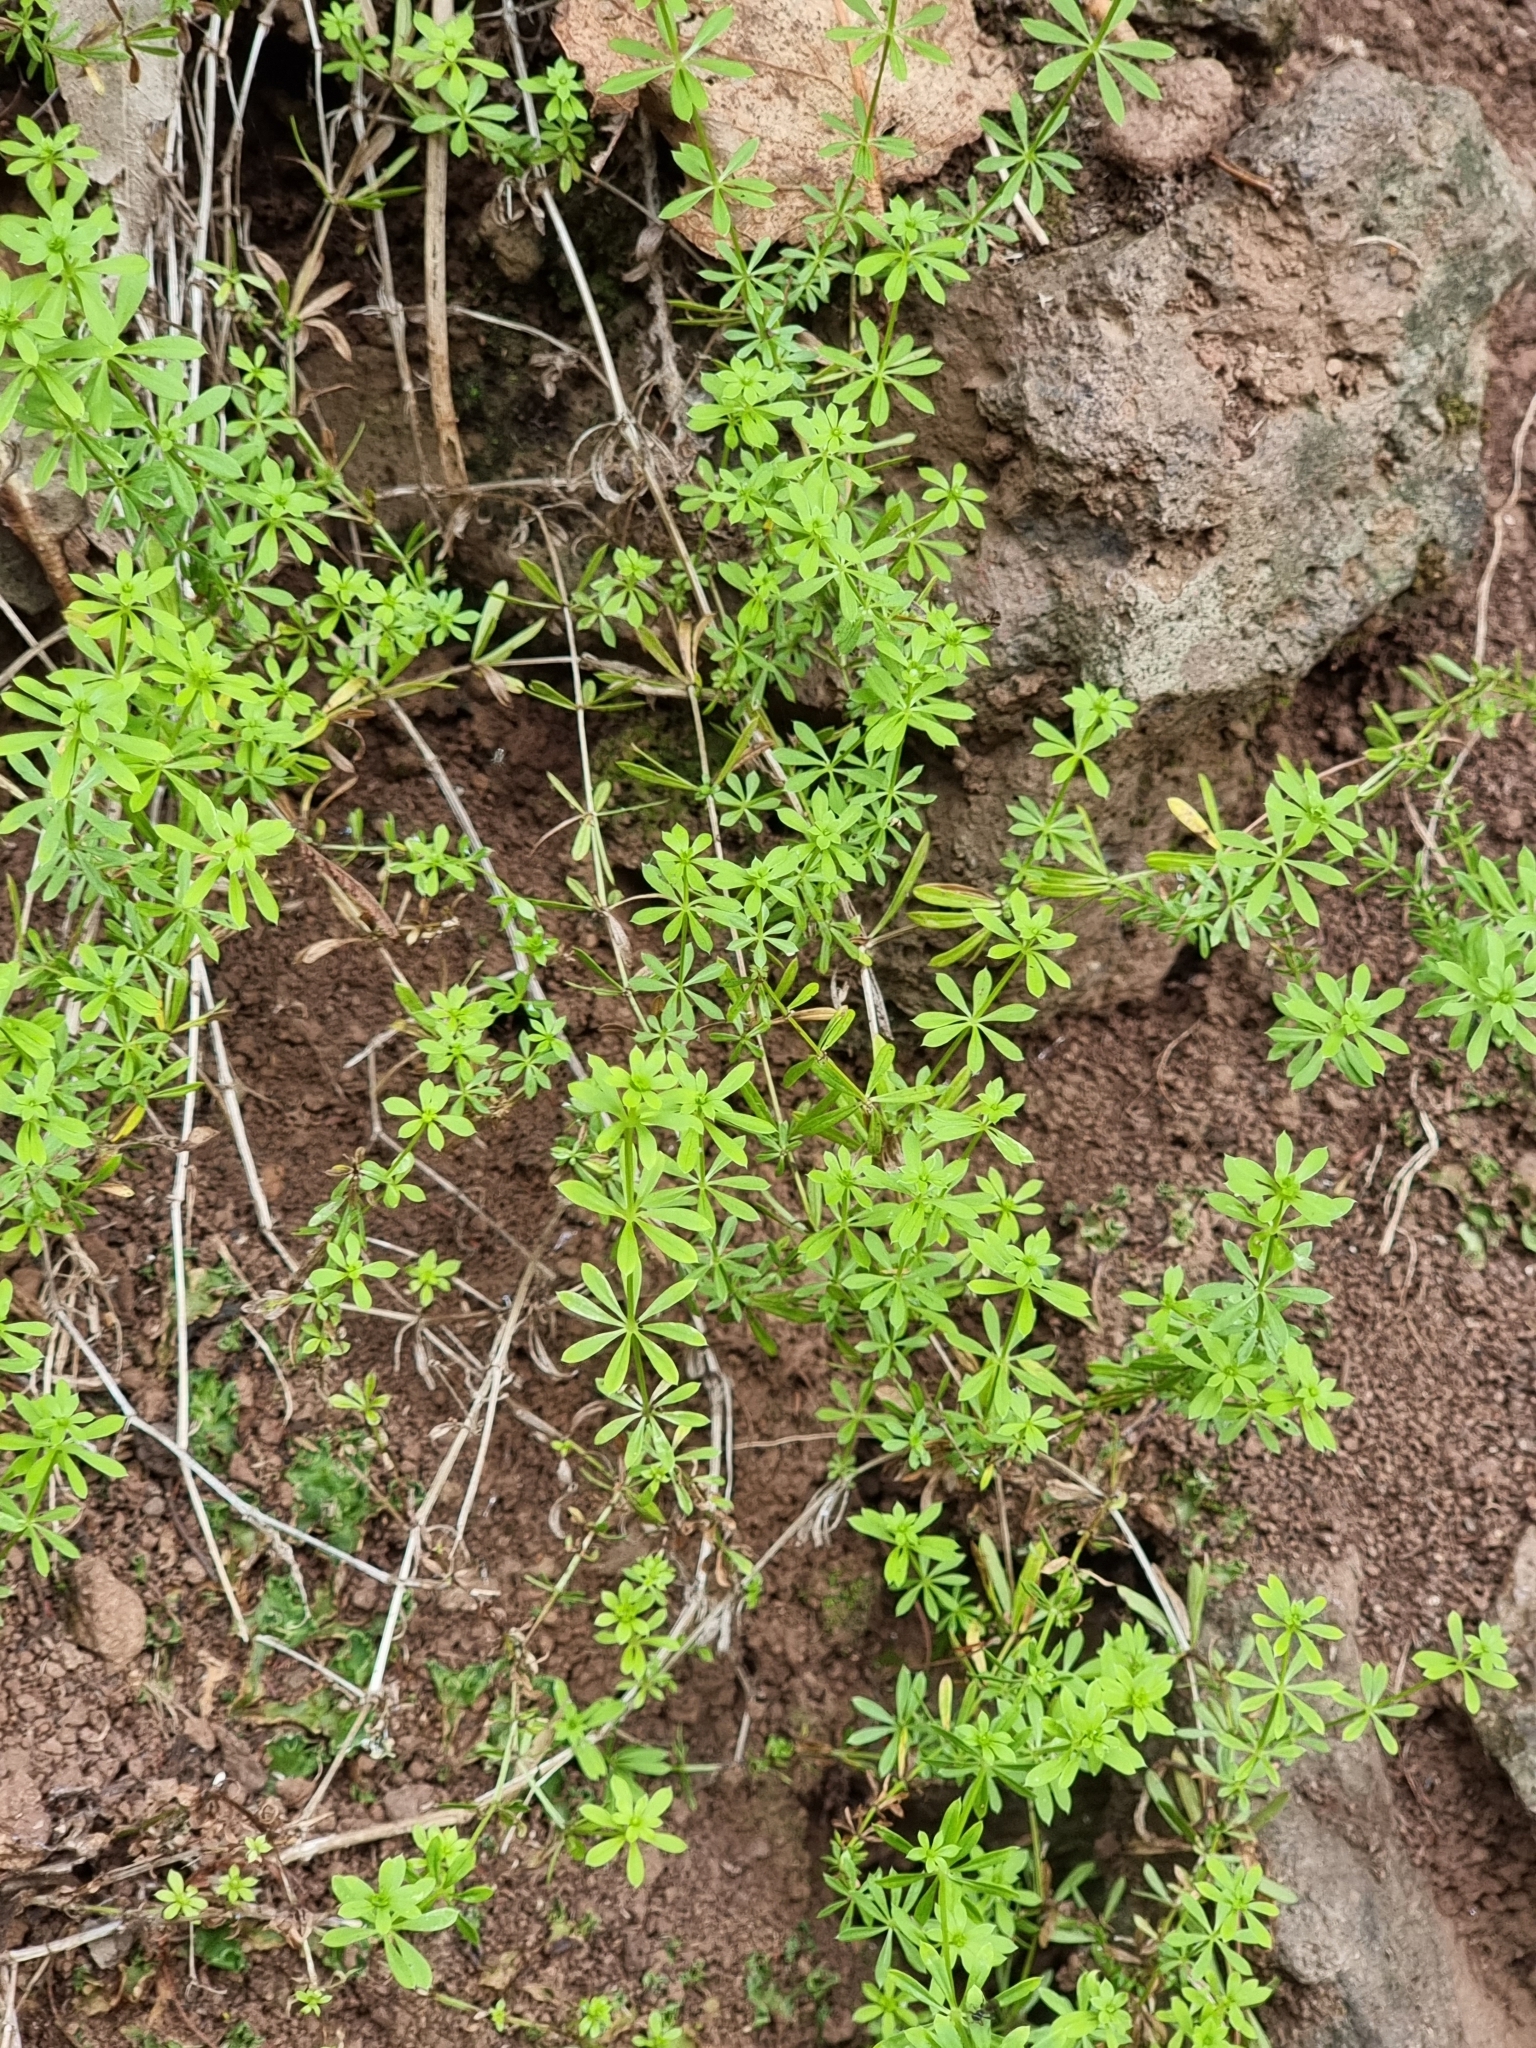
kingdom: Plantae
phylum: Tracheophyta
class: Magnoliopsida
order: Gentianales
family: Rubiaceae
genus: Galium
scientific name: Galium aparine
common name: Cleavers
